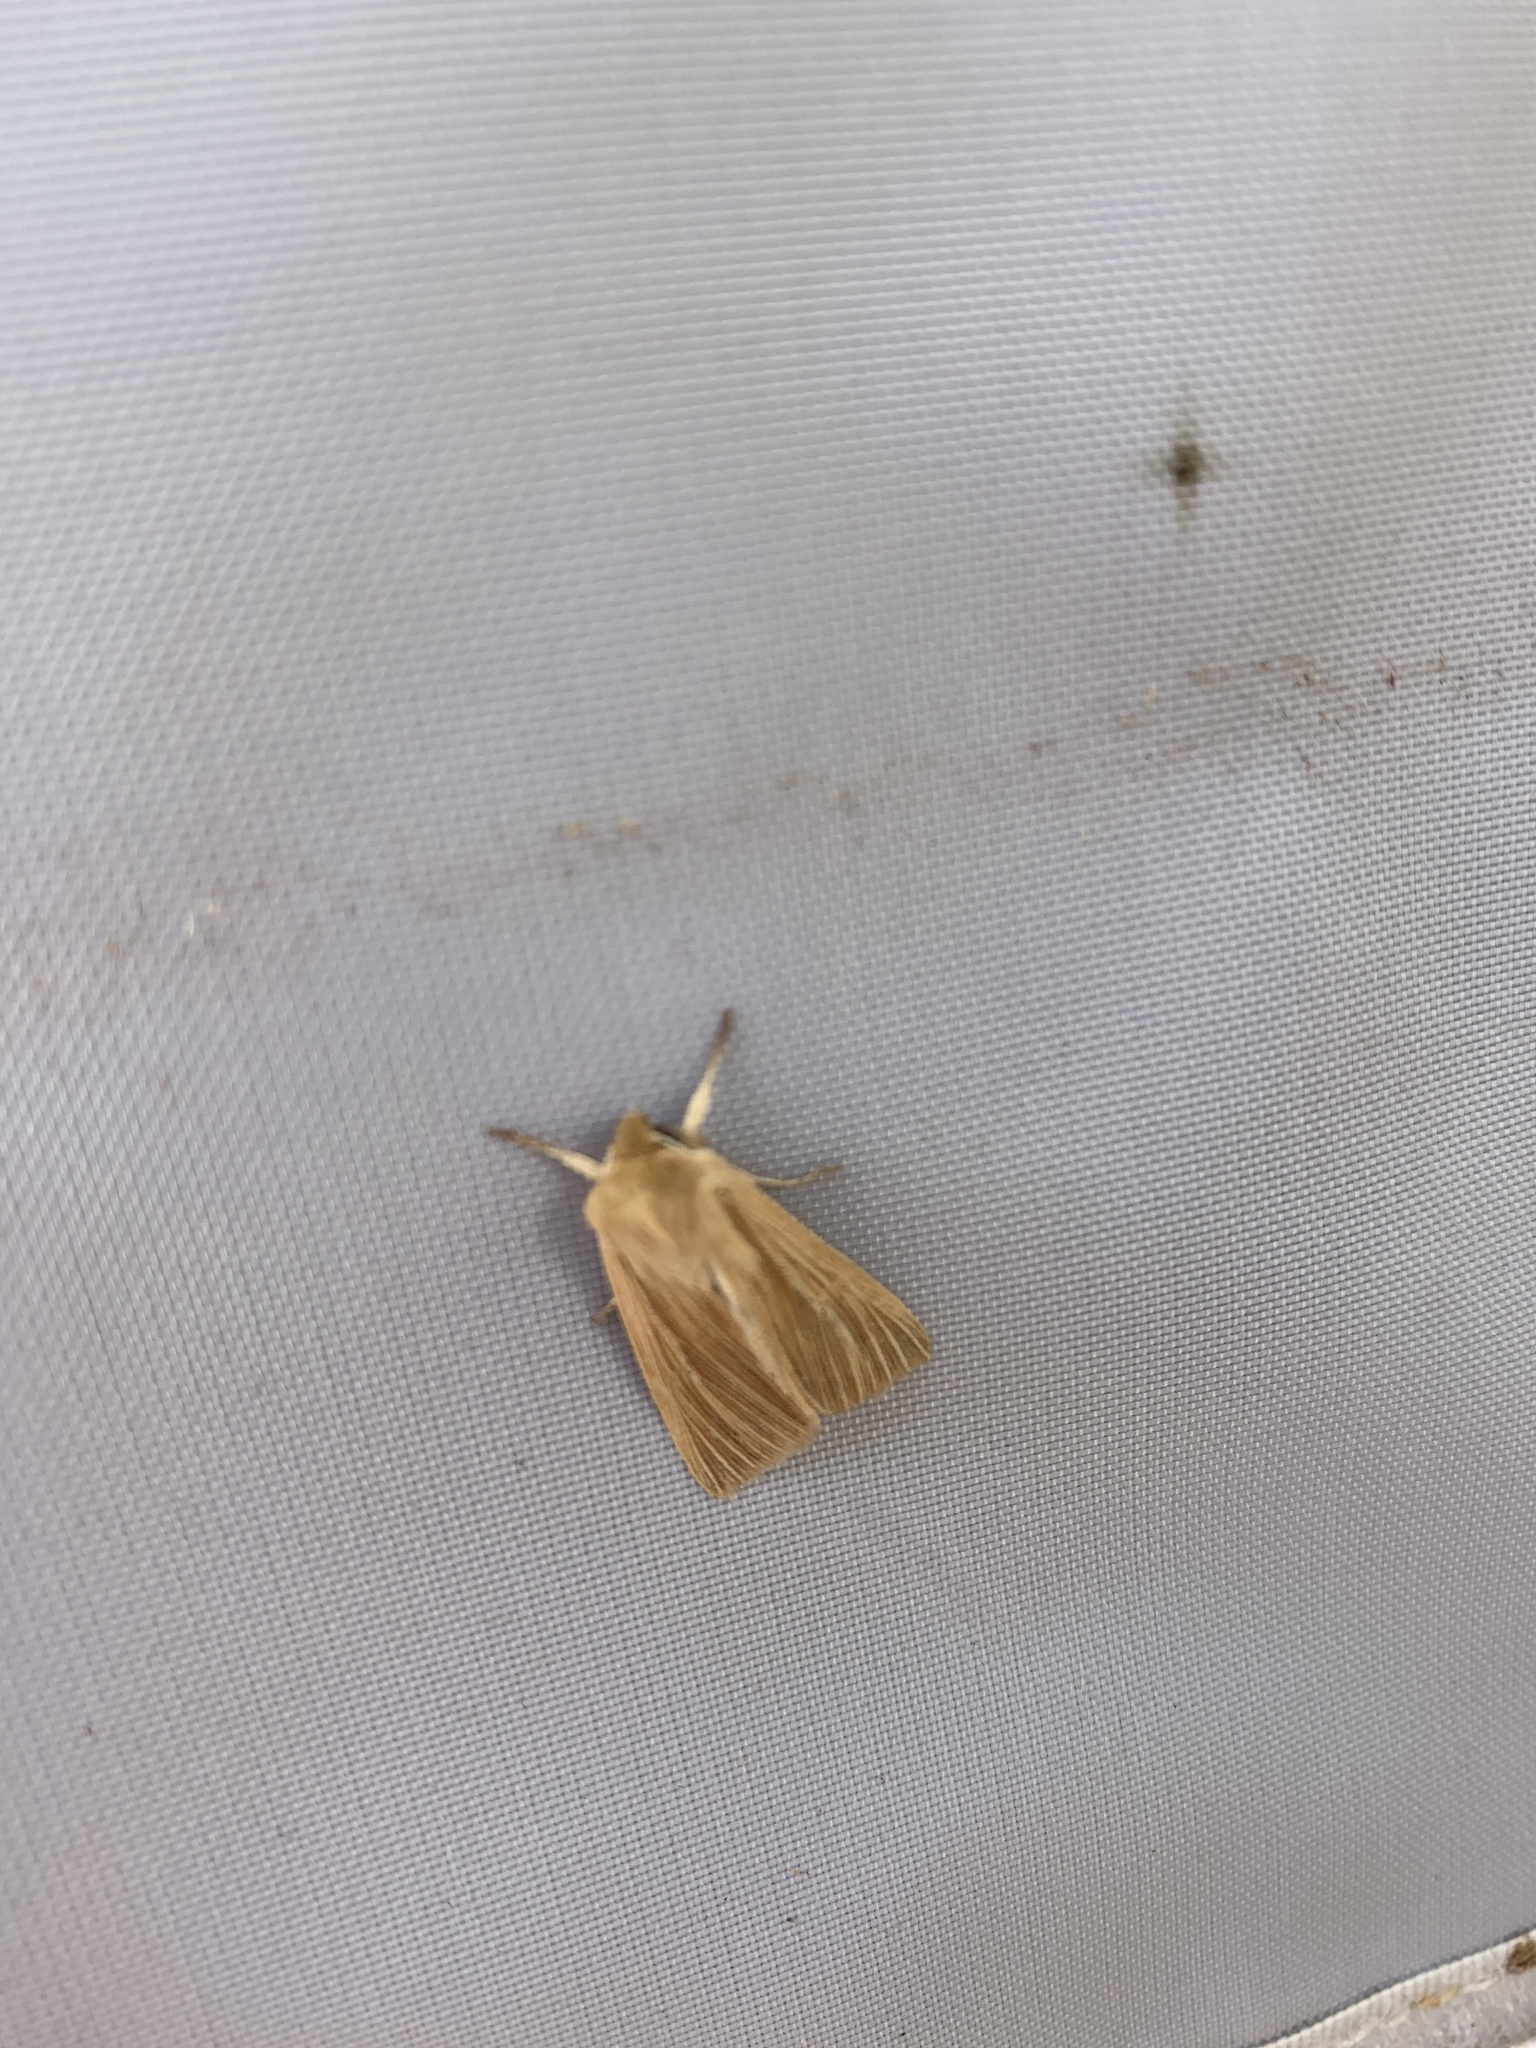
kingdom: Animalia
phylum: Arthropoda
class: Insecta
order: Lepidoptera
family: Noctuidae
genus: Mythimna
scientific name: Mythimna pallens
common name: Common wainscot
